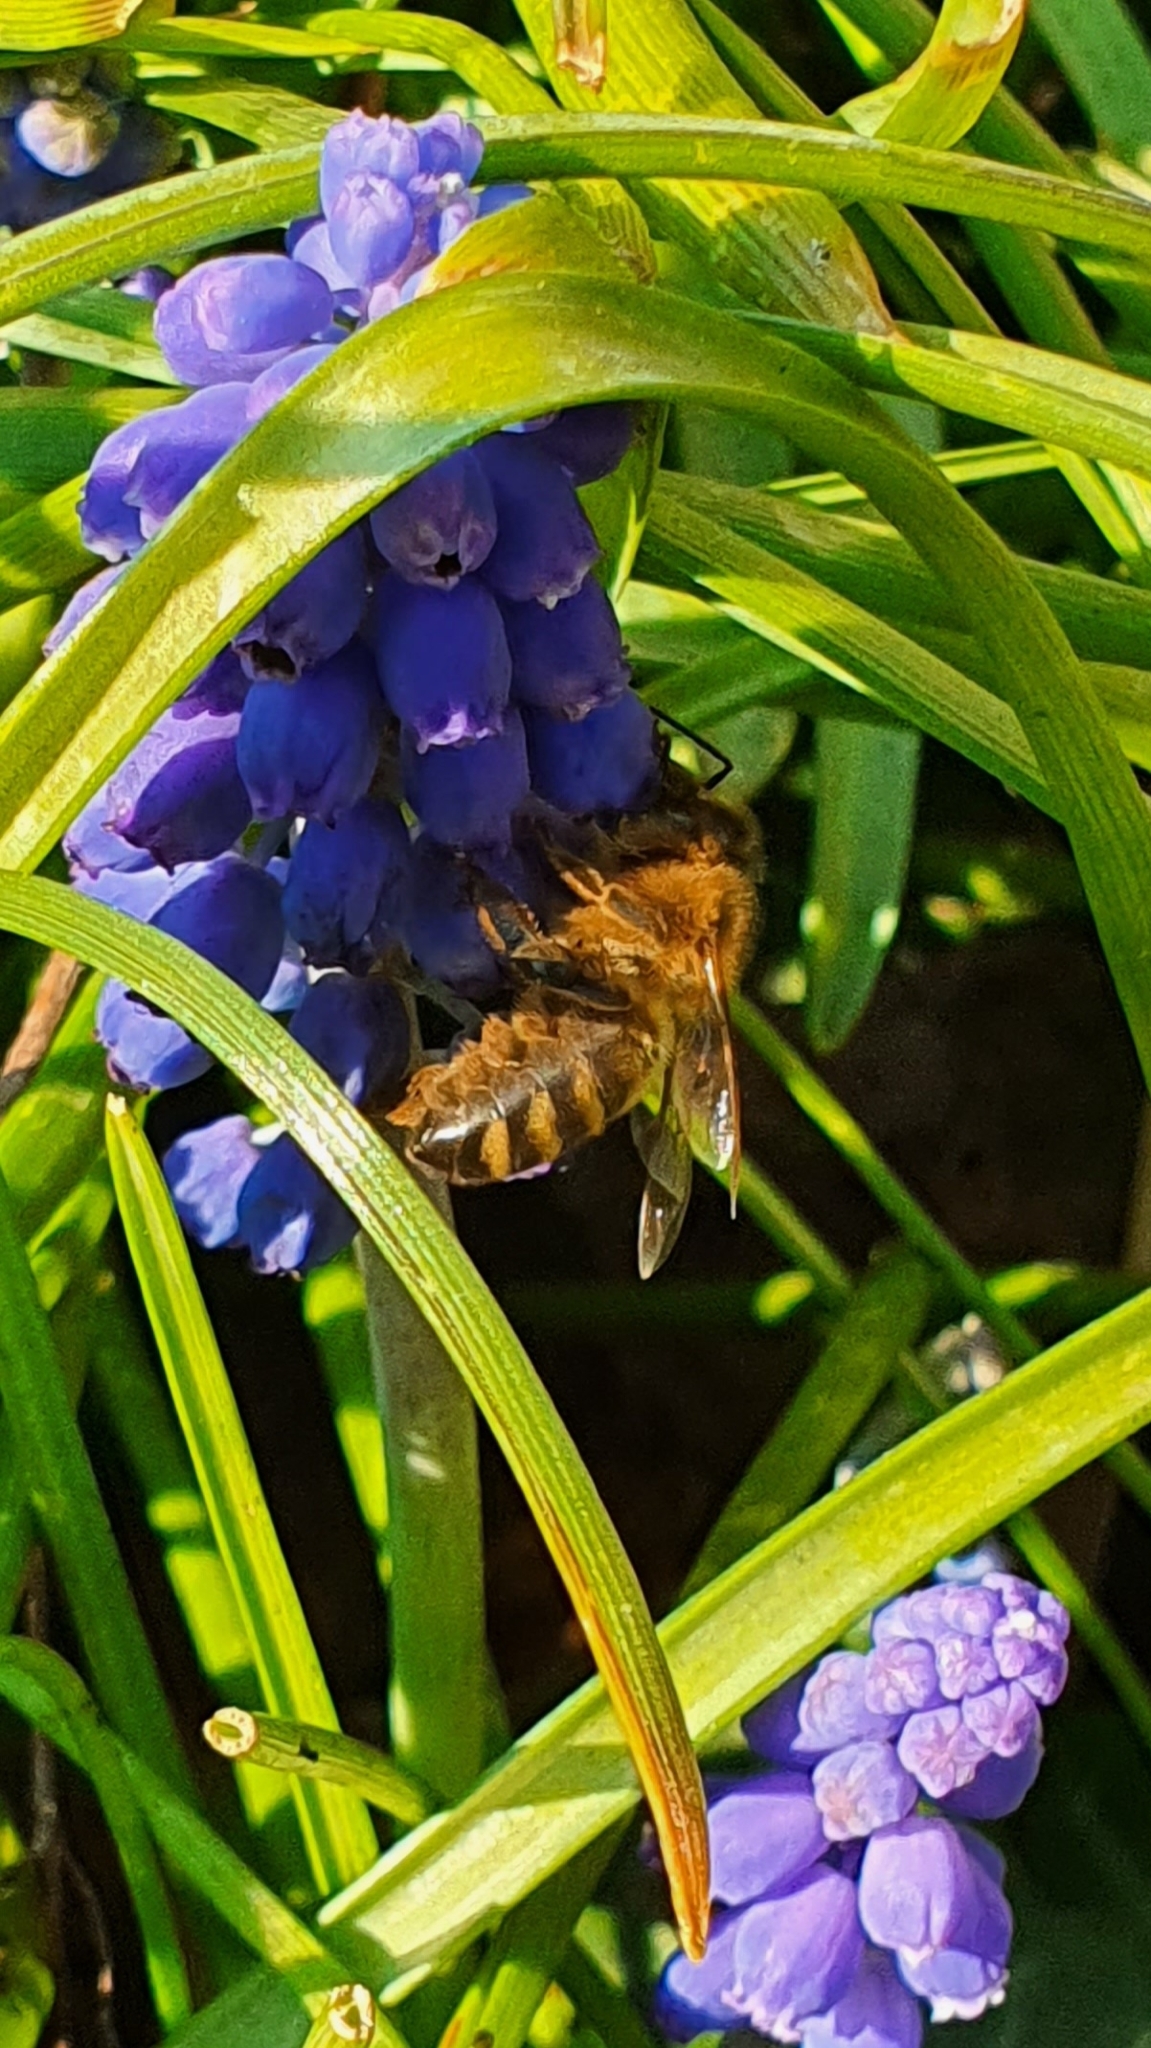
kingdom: Animalia
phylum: Arthropoda
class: Insecta
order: Hymenoptera
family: Apidae
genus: Apis
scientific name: Apis mellifera
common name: Honey bee
